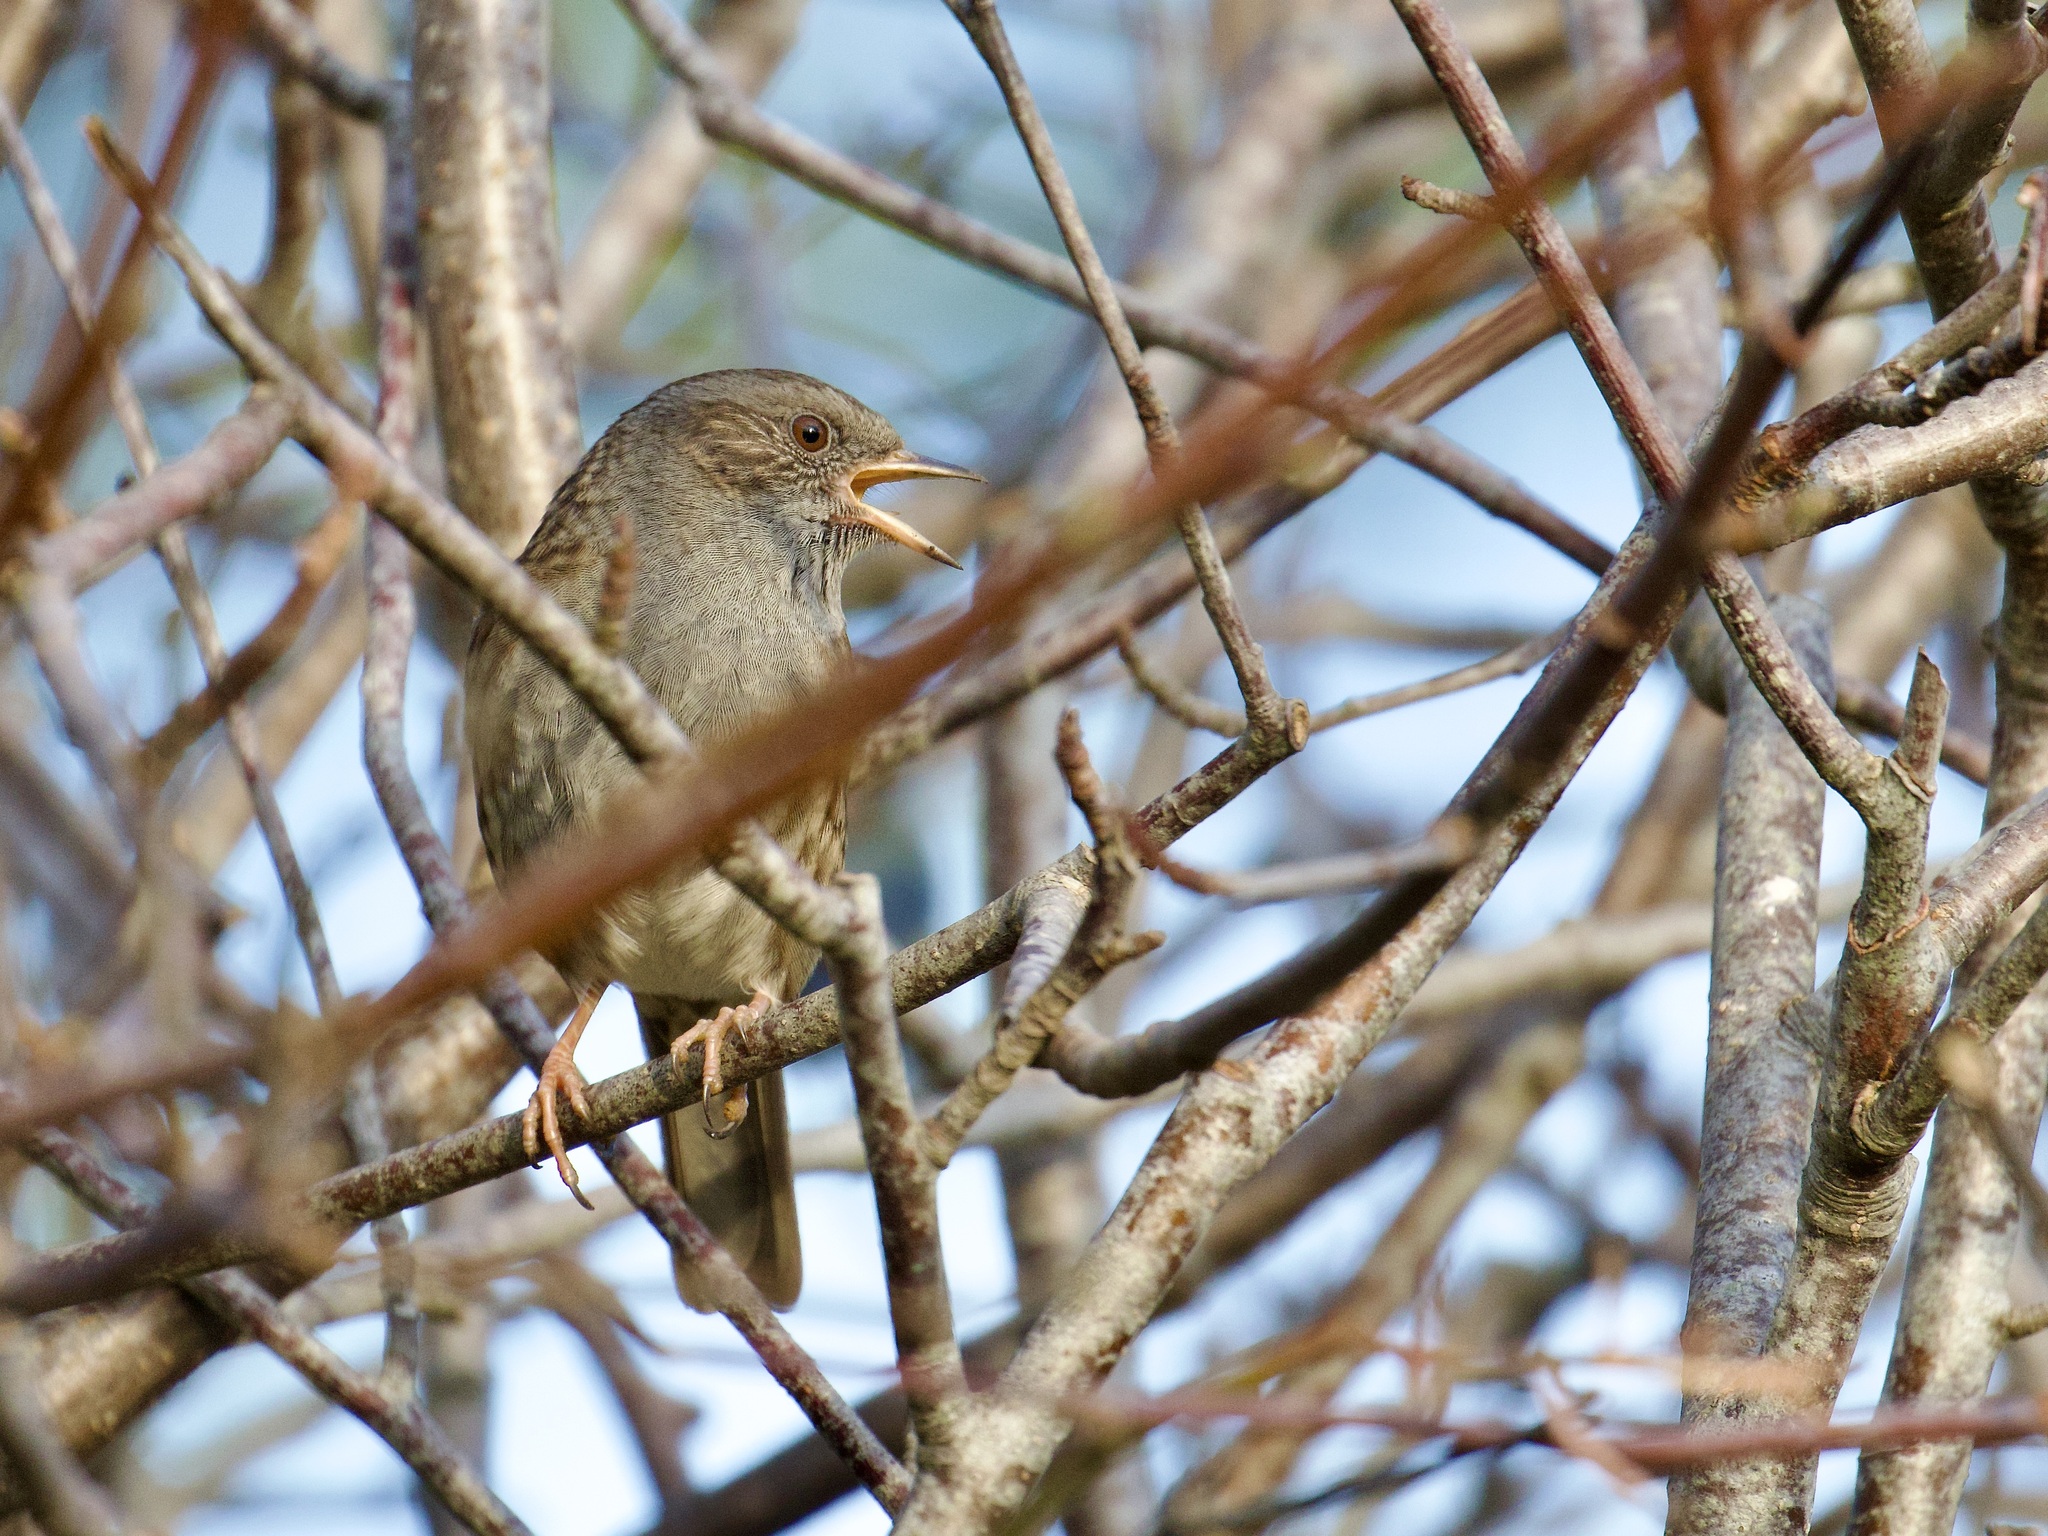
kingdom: Animalia
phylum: Chordata
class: Aves
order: Passeriformes
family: Prunellidae
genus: Prunella
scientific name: Prunella modularis
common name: Dunnock
